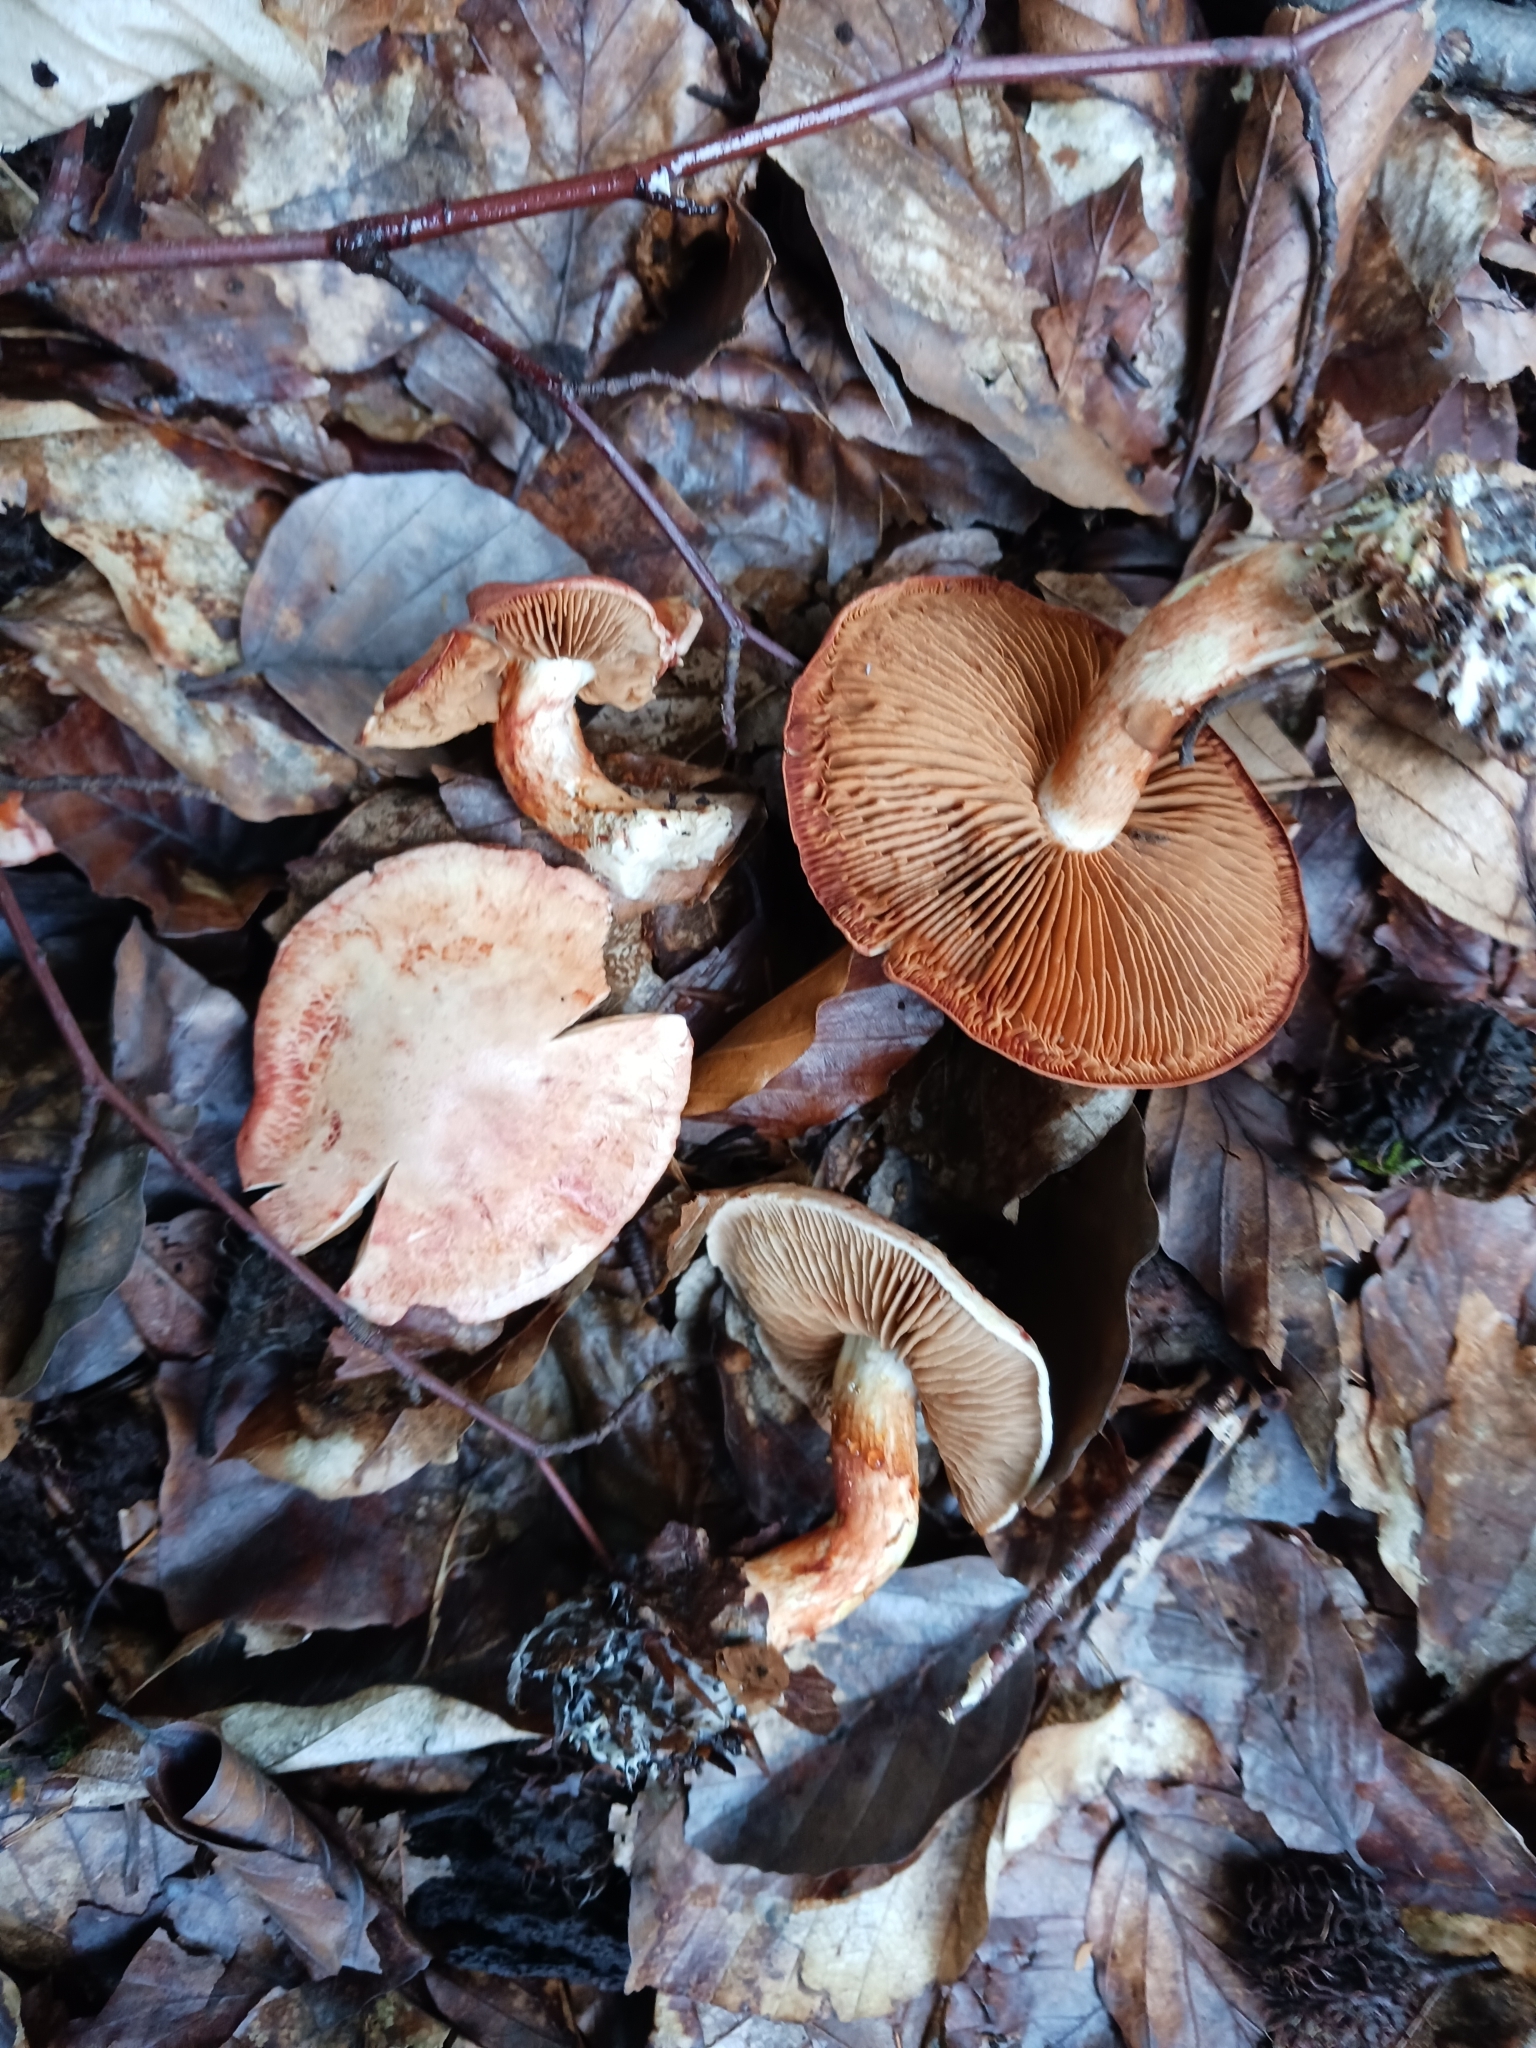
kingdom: Fungi
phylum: Basidiomycota
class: Agaricomycetes
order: Agaricales
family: Cortinariaceae
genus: Cortinarius
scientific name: Cortinarius bolaris
